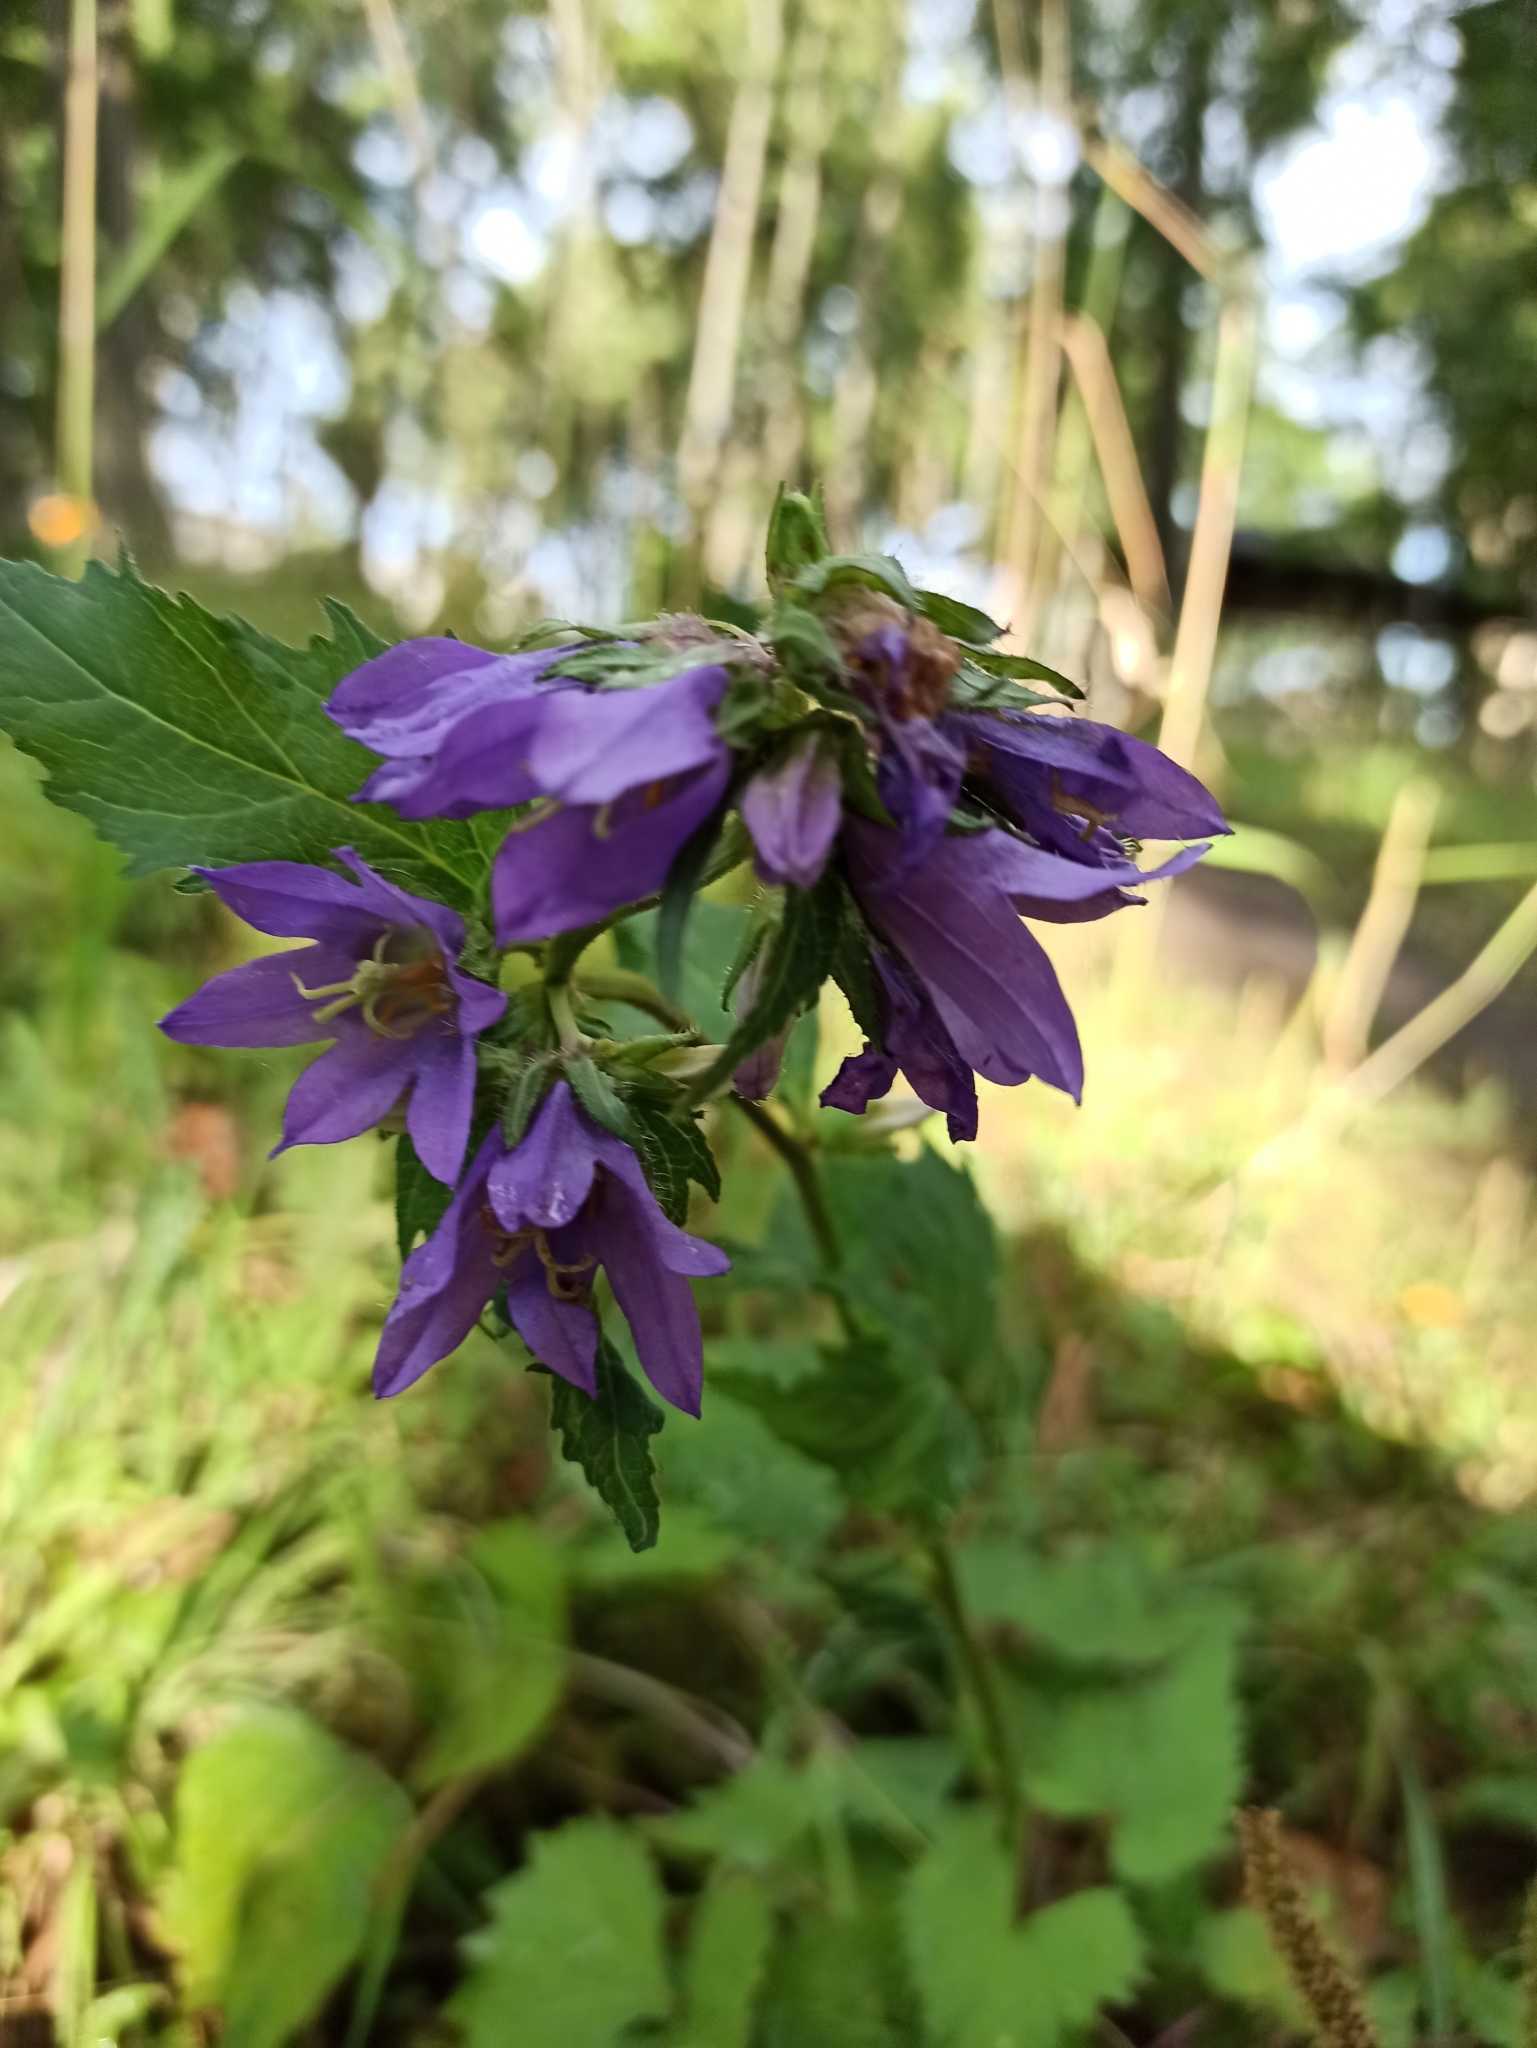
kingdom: Plantae
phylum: Tracheophyta
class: Magnoliopsida
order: Asterales
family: Campanulaceae
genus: Campanula
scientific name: Campanula glomerata
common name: Clustered bellflower
